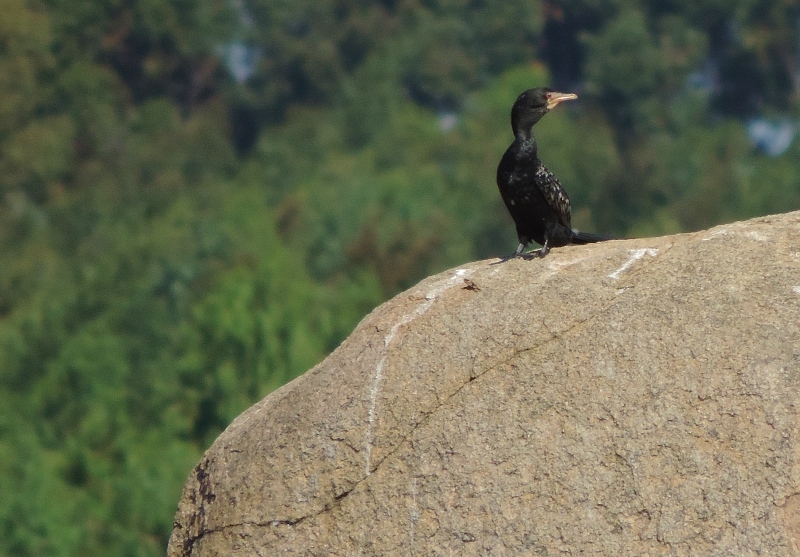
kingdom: Animalia
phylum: Chordata
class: Aves
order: Suliformes
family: Phalacrocoracidae
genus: Microcarbo
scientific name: Microcarbo africanus
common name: Long-tailed cormorant
